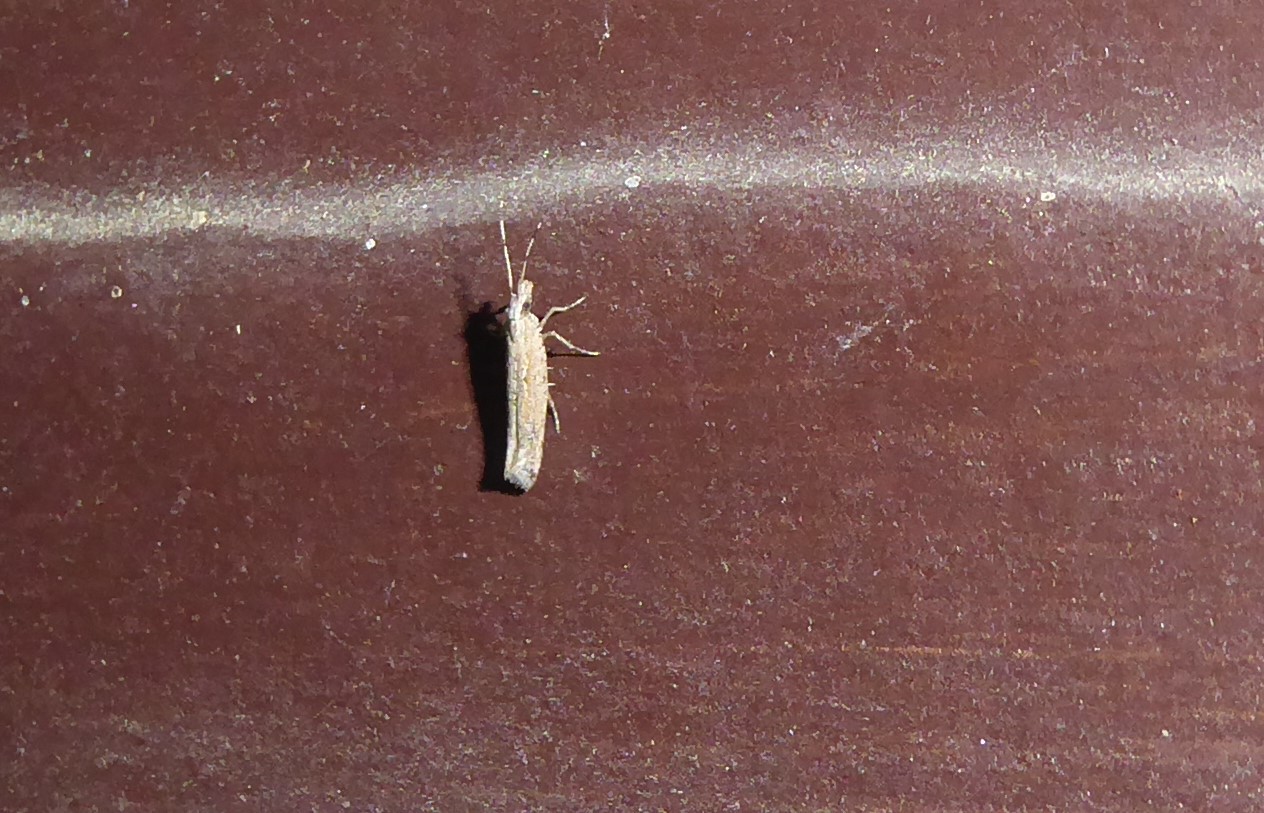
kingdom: Animalia
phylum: Arthropoda
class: Insecta
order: Lepidoptera
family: Plutellidae
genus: Plutella
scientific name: Plutella xylostella
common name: Diamond-back moth
